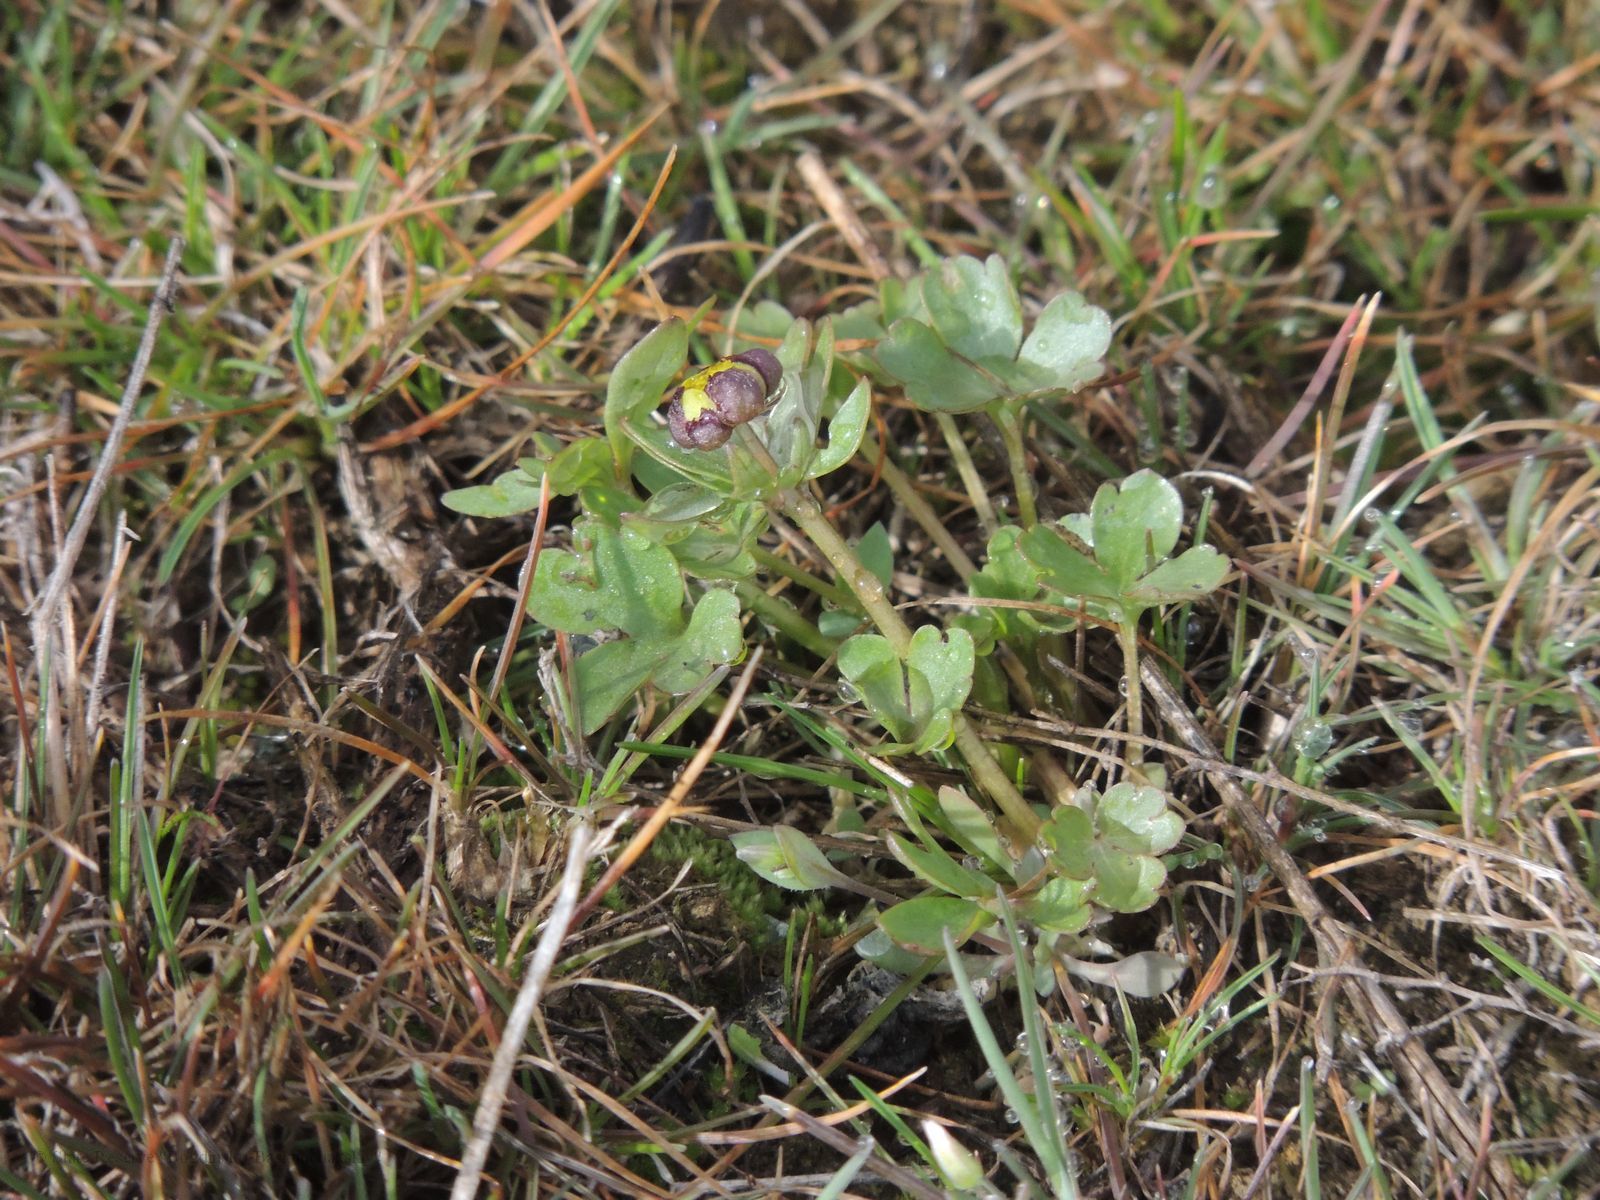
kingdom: Plantae
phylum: Tracheophyta
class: Magnoliopsida
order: Ranunculales
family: Ranunculaceae
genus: Ranunculus
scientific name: Ranunculus polyrhizos
